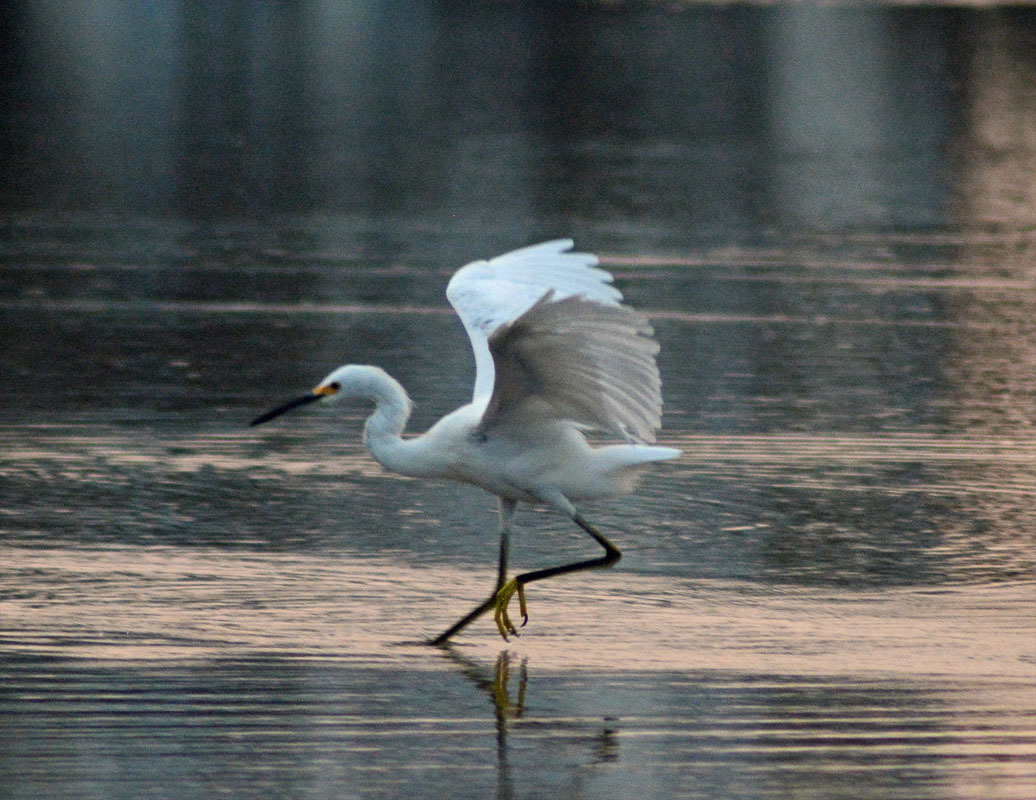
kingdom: Animalia
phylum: Chordata
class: Aves
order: Pelecaniformes
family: Ardeidae
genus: Egretta
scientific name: Egretta thula
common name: Snowy egret
